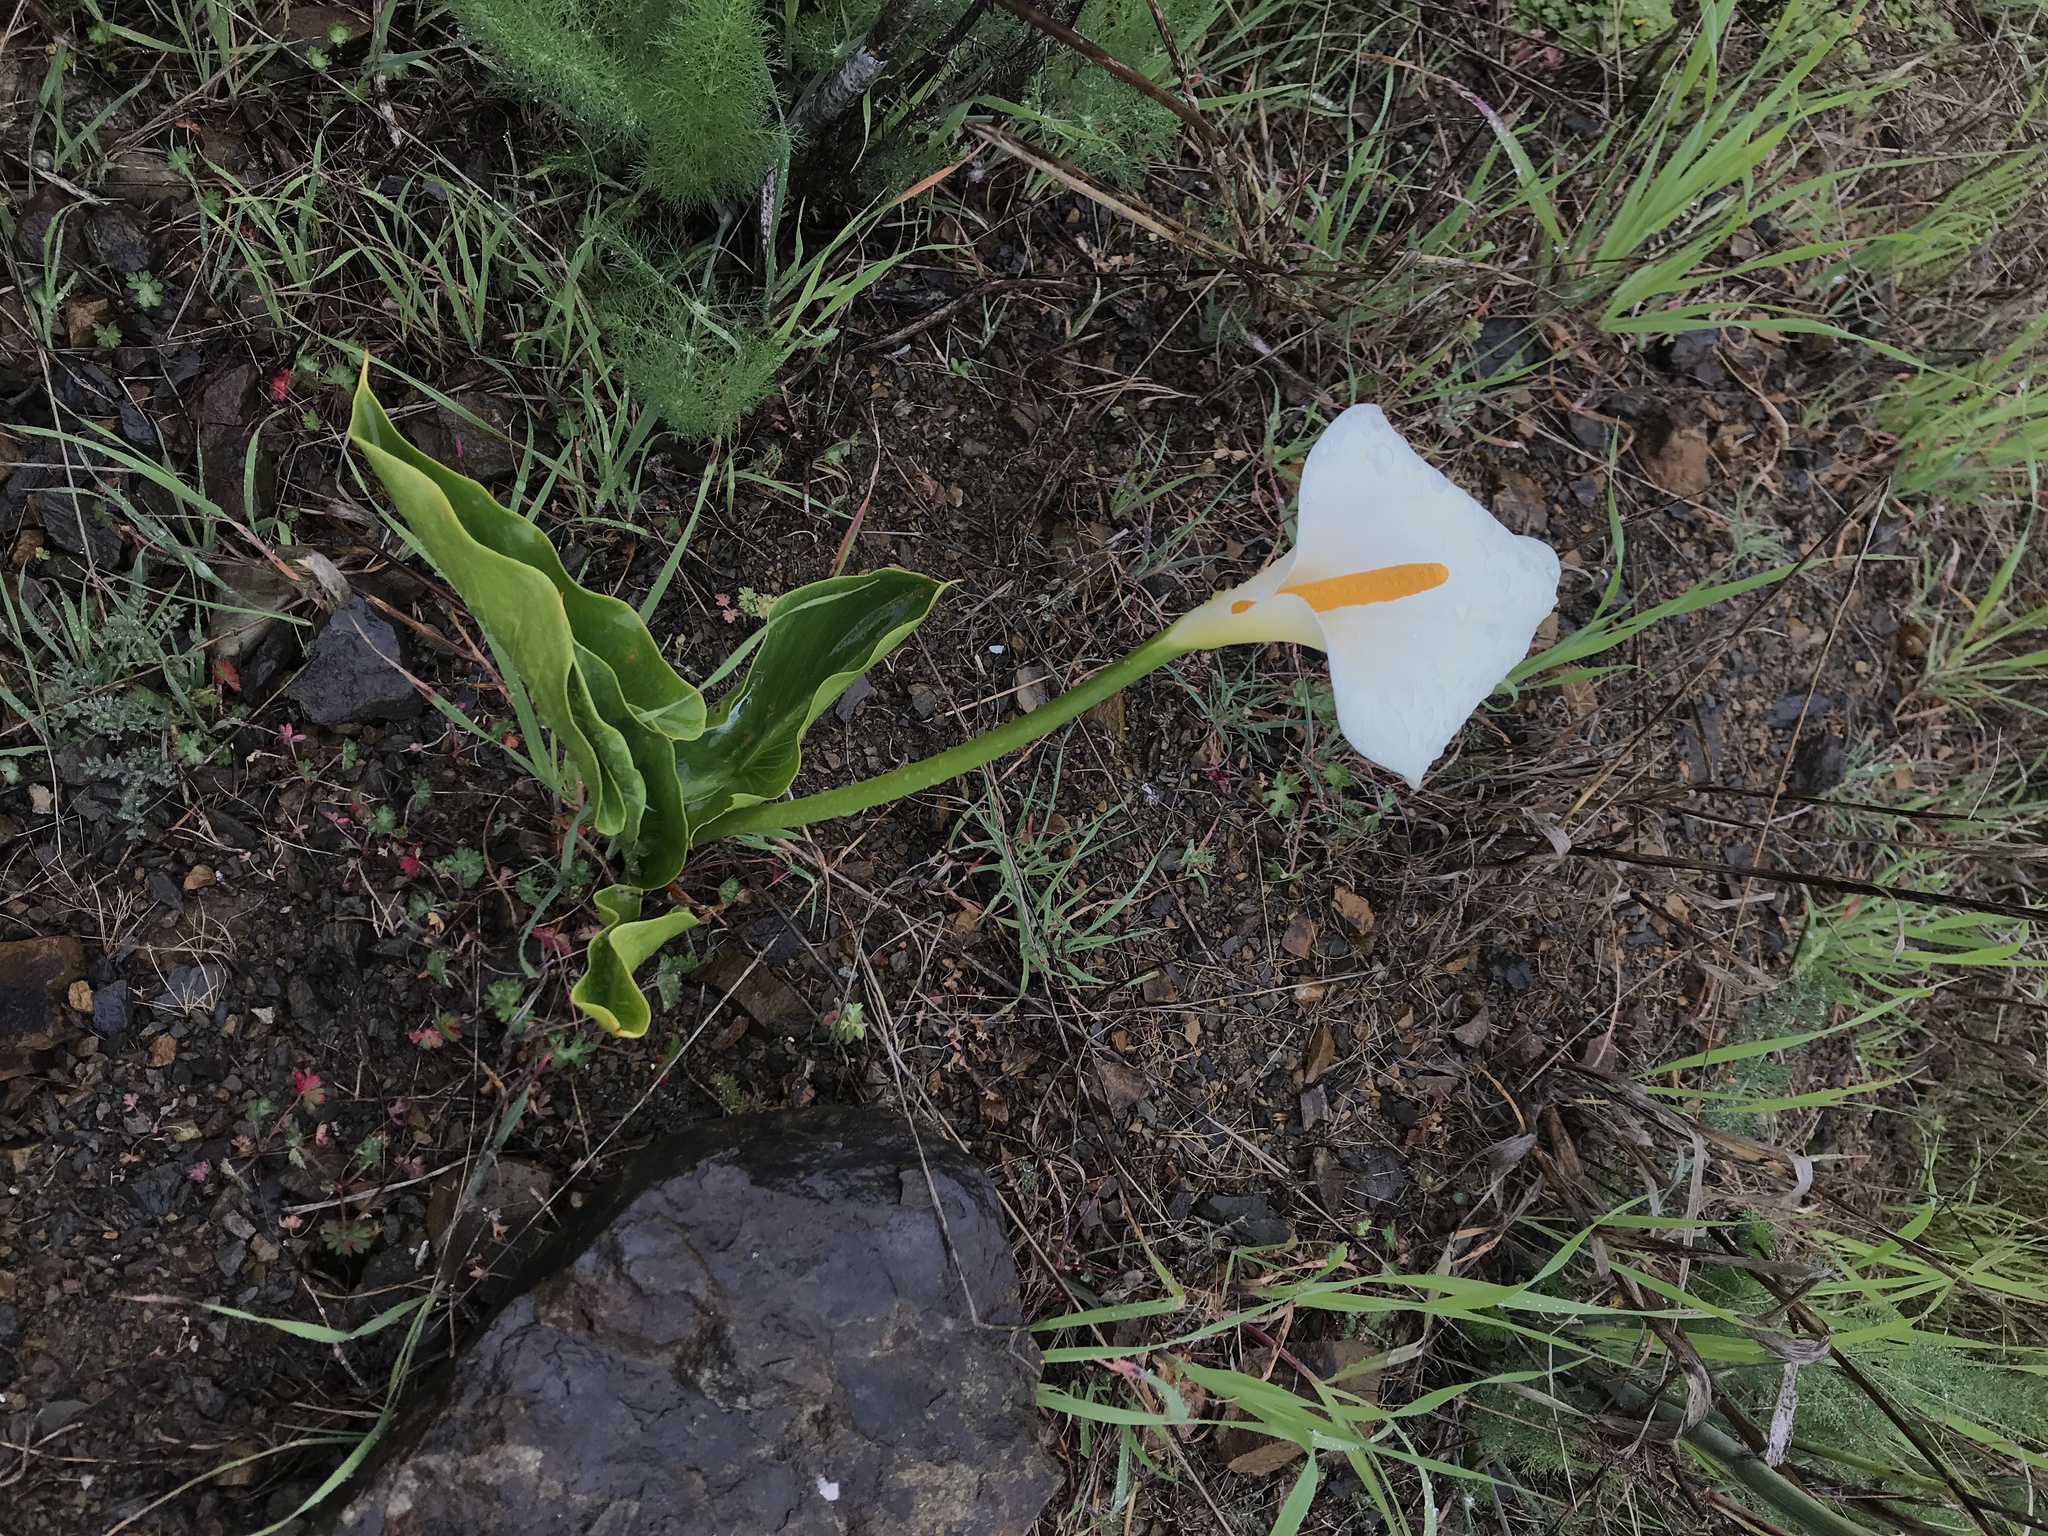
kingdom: Plantae
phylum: Tracheophyta
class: Liliopsida
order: Alismatales
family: Araceae
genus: Zantedeschia
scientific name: Zantedeschia aethiopica
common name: Altar-lily
